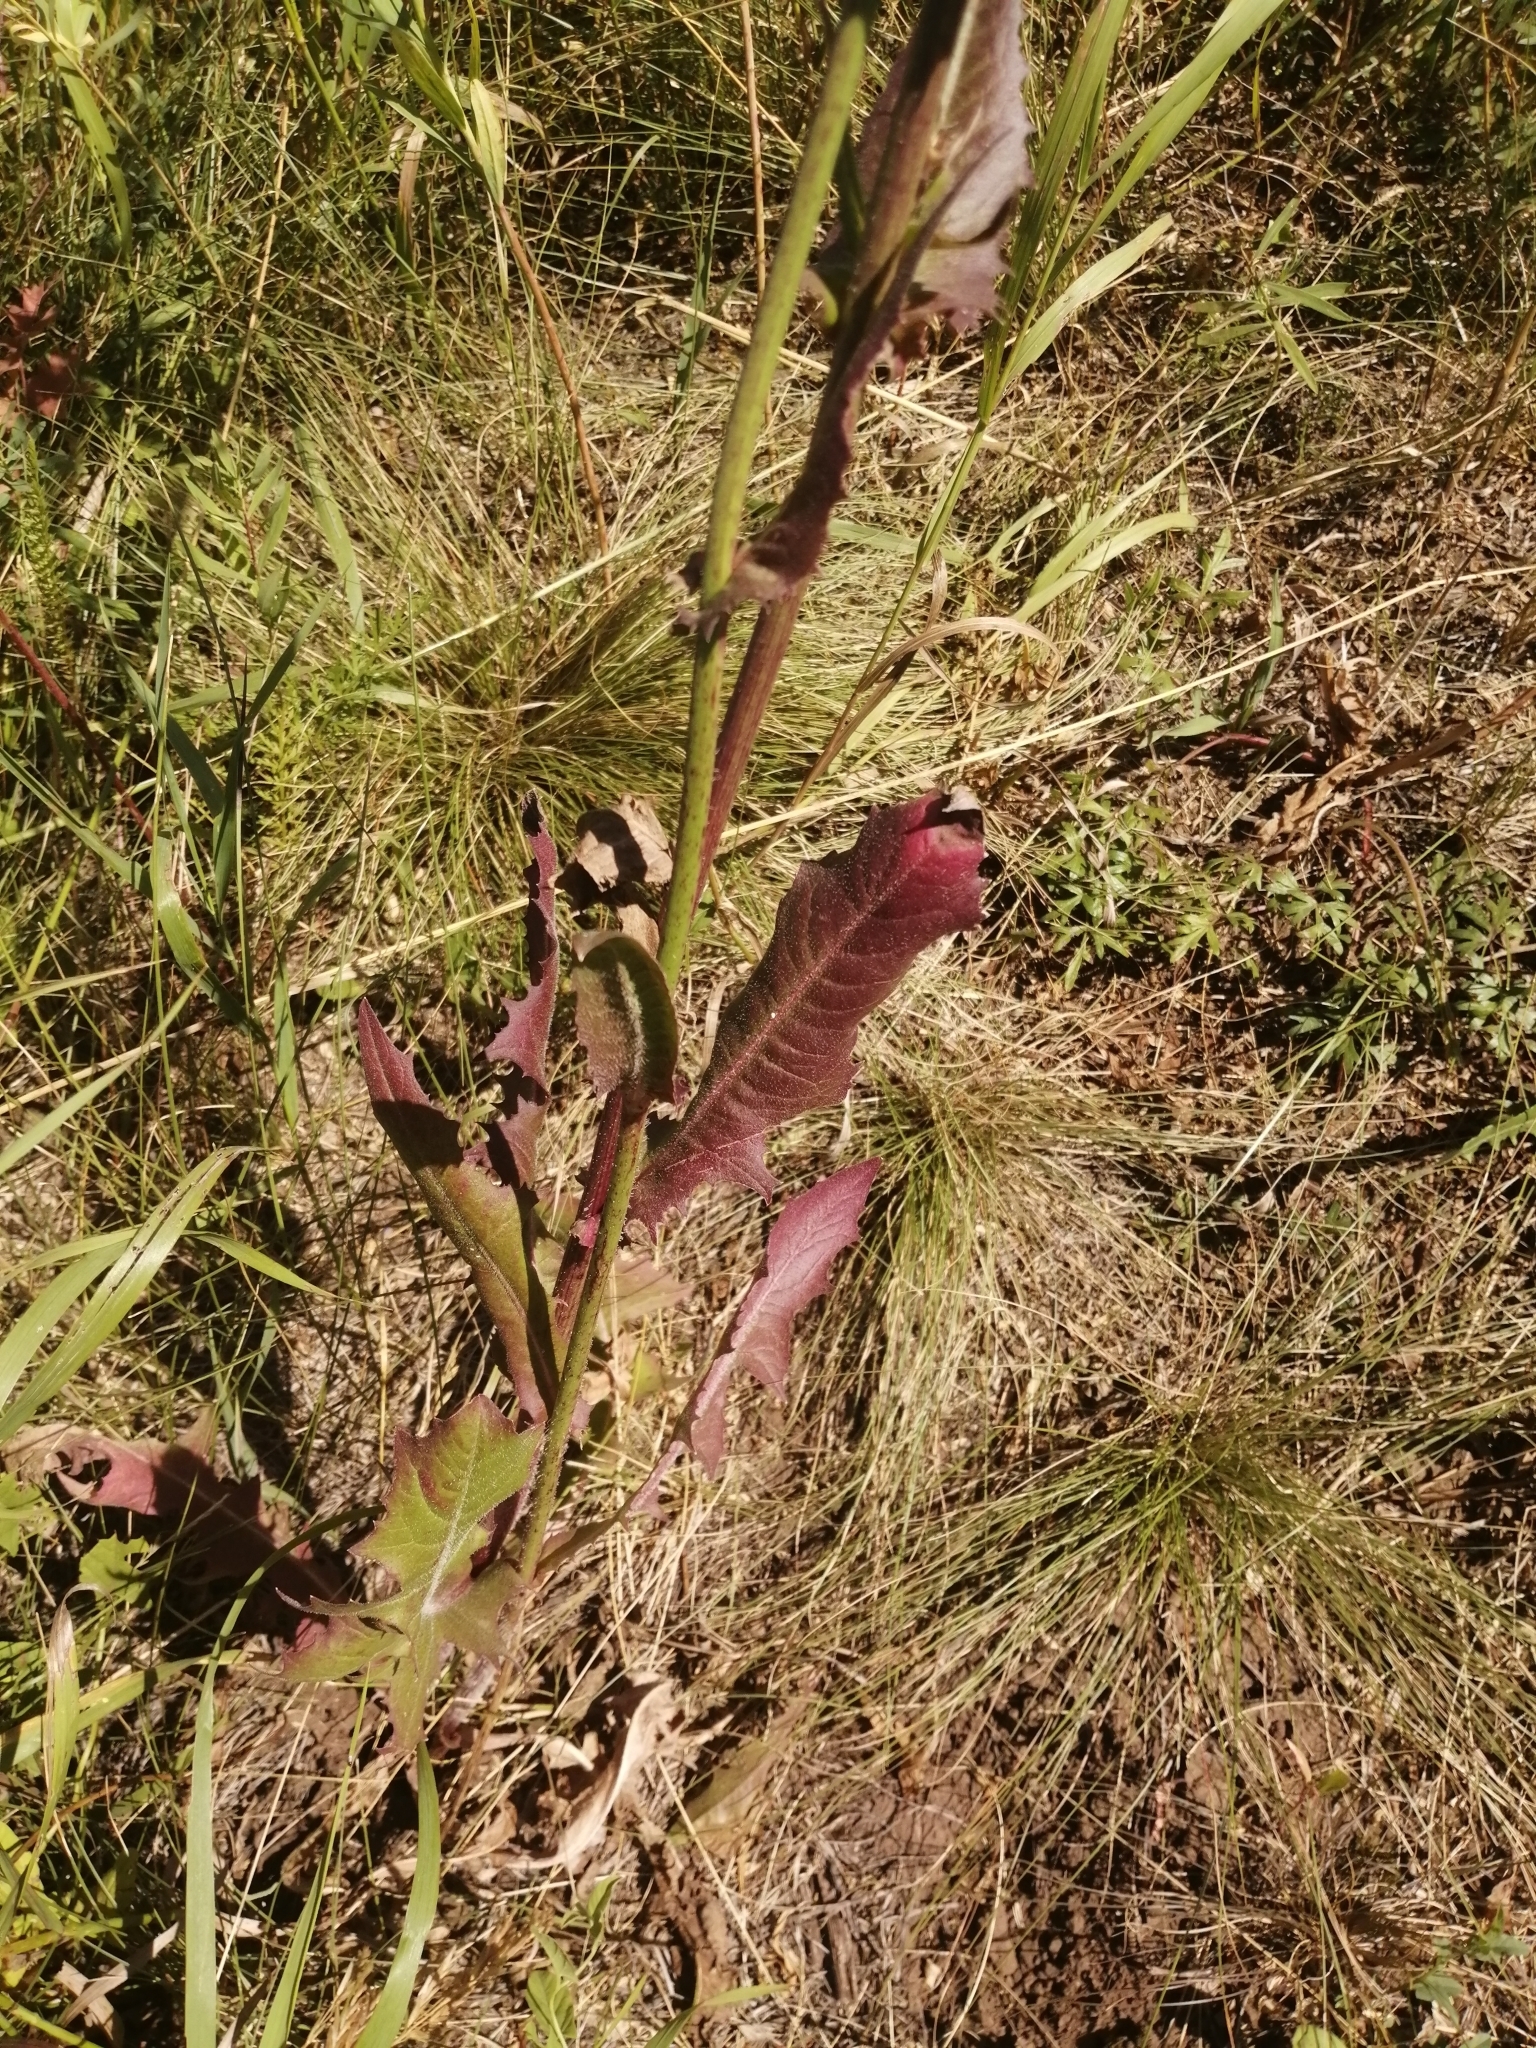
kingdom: Plantae
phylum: Tracheophyta
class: Magnoliopsida
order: Asterales
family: Asteraceae
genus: Cichorium
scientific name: Cichorium intybus
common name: Chicory
